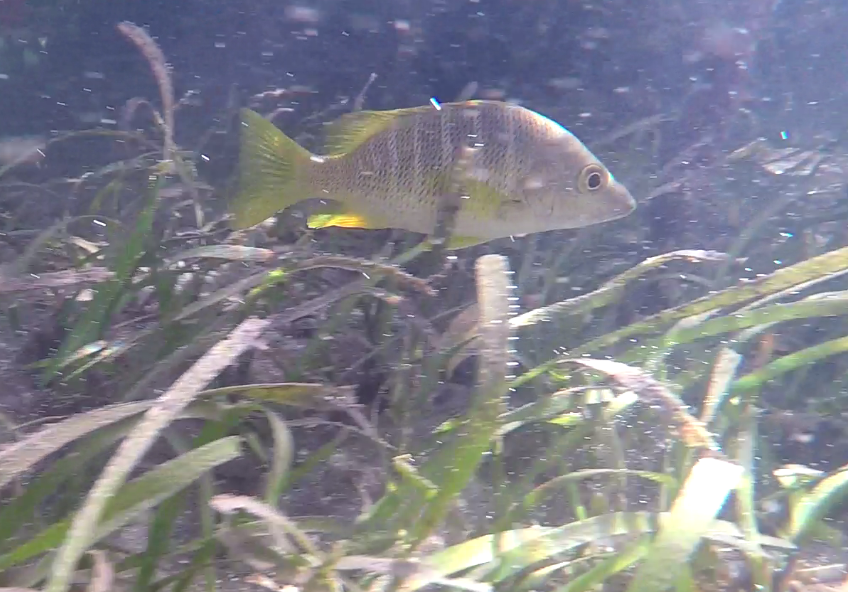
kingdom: Animalia
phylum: Chordata
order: Perciformes
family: Lutjanidae
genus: Lutjanus
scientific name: Lutjanus apodus
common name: Schoolmaster
